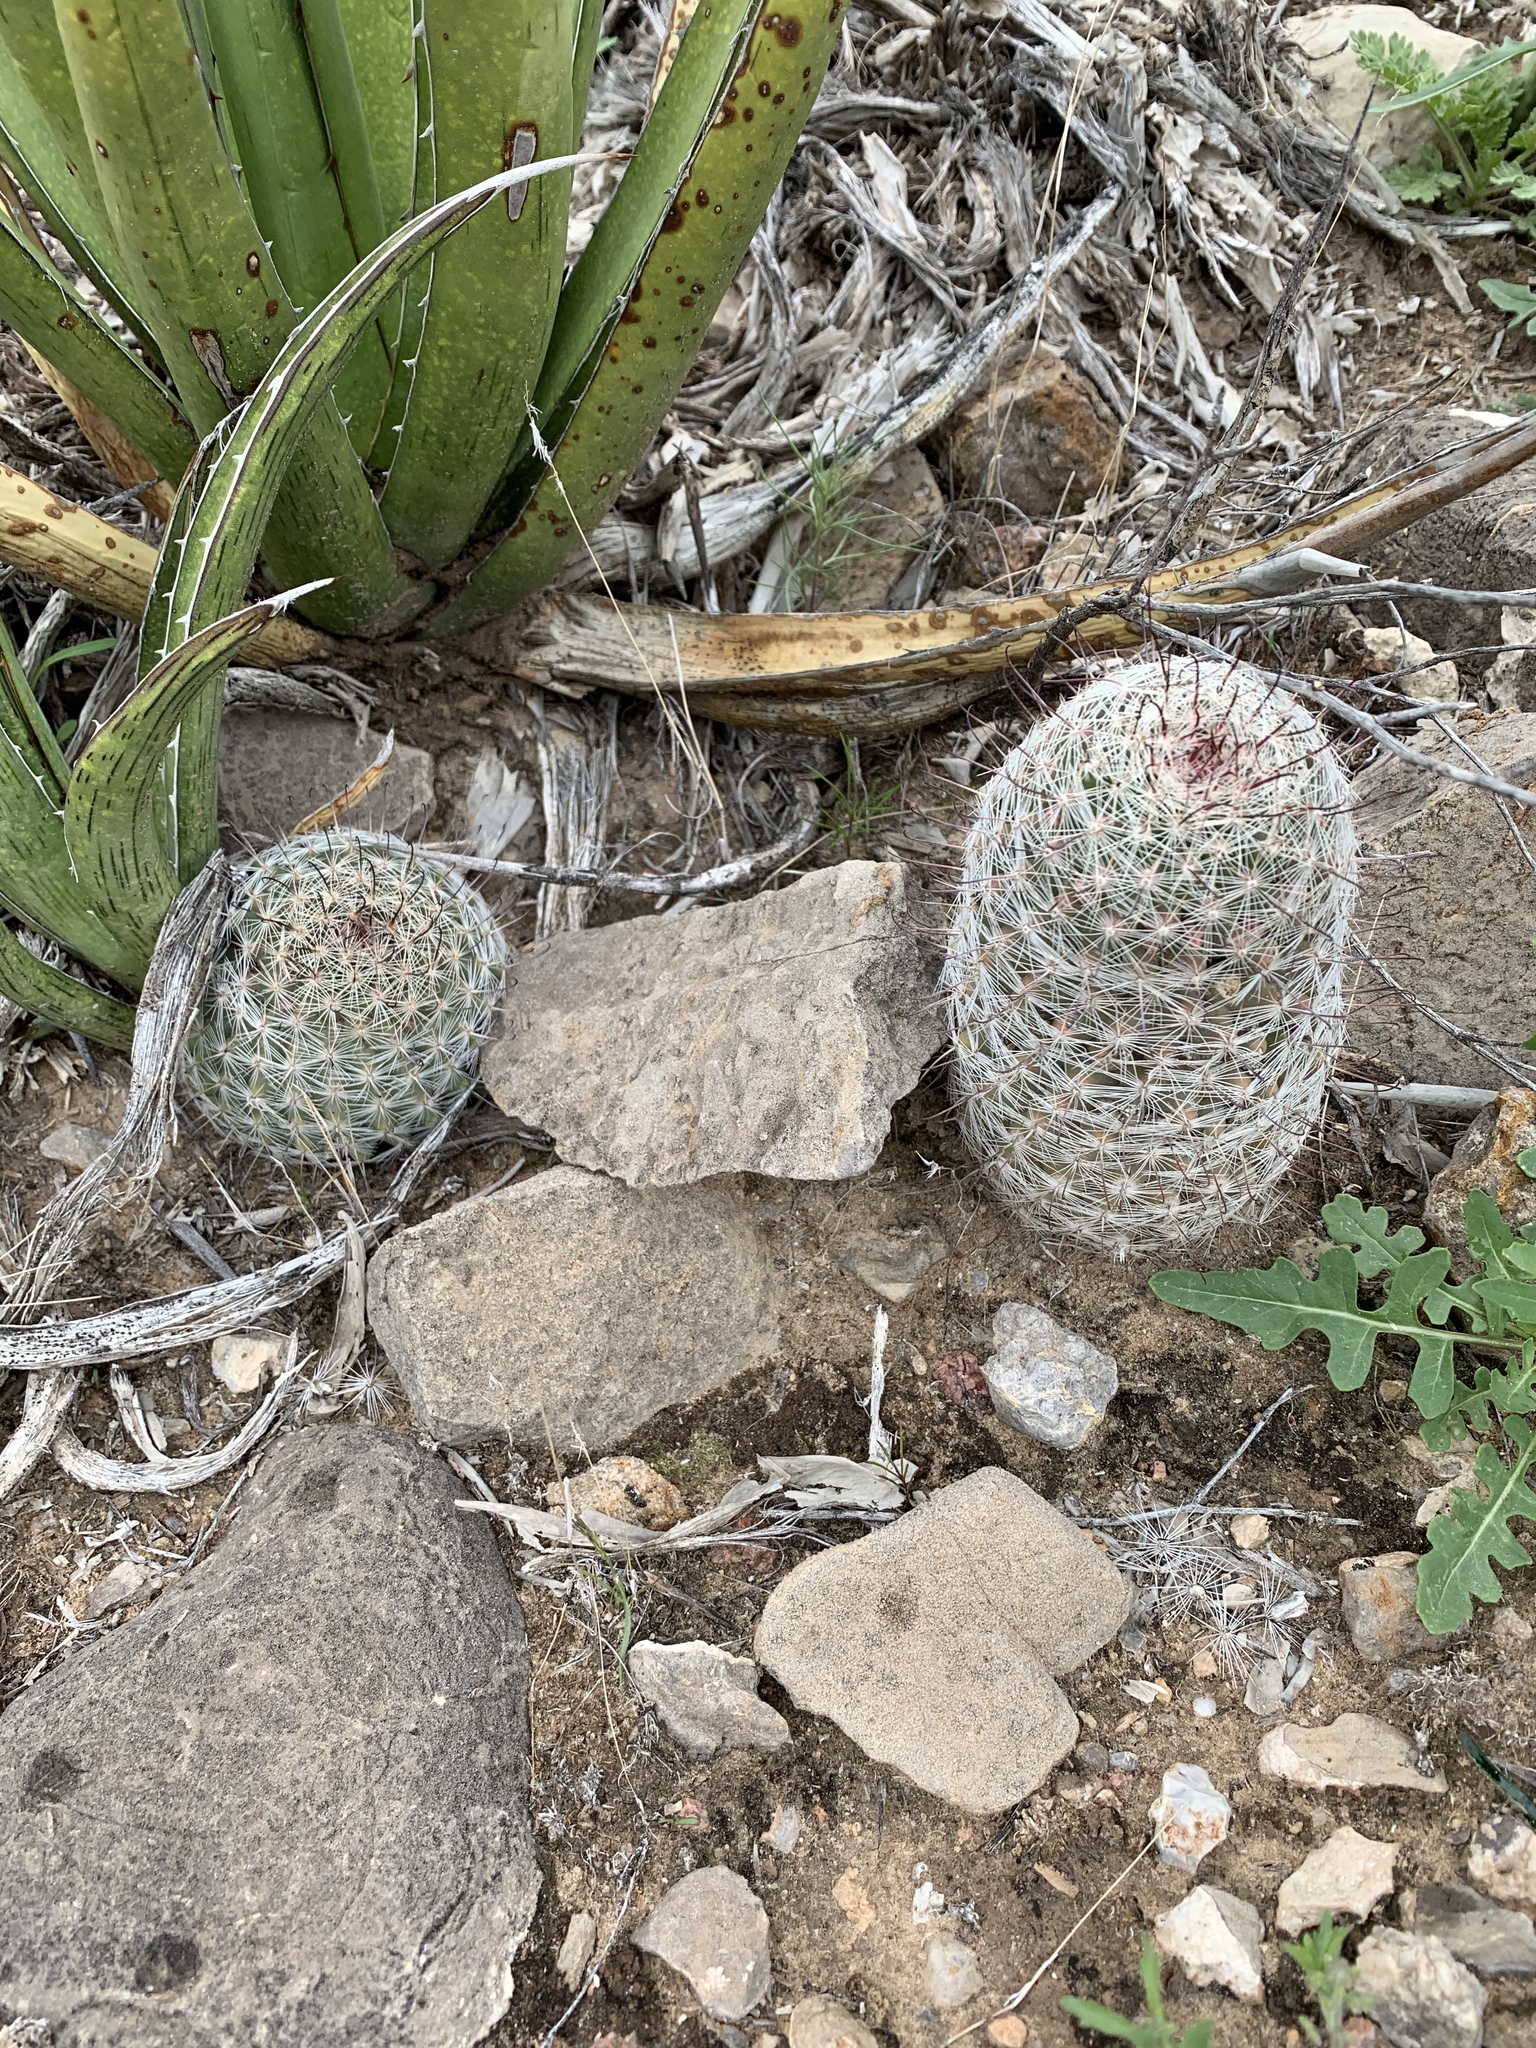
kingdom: Plantae
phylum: Tracheophyta
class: Magnoliopsida
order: Caryophyllales
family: Cactaceae
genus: Cochemiea
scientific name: Cochemiea grahamii
